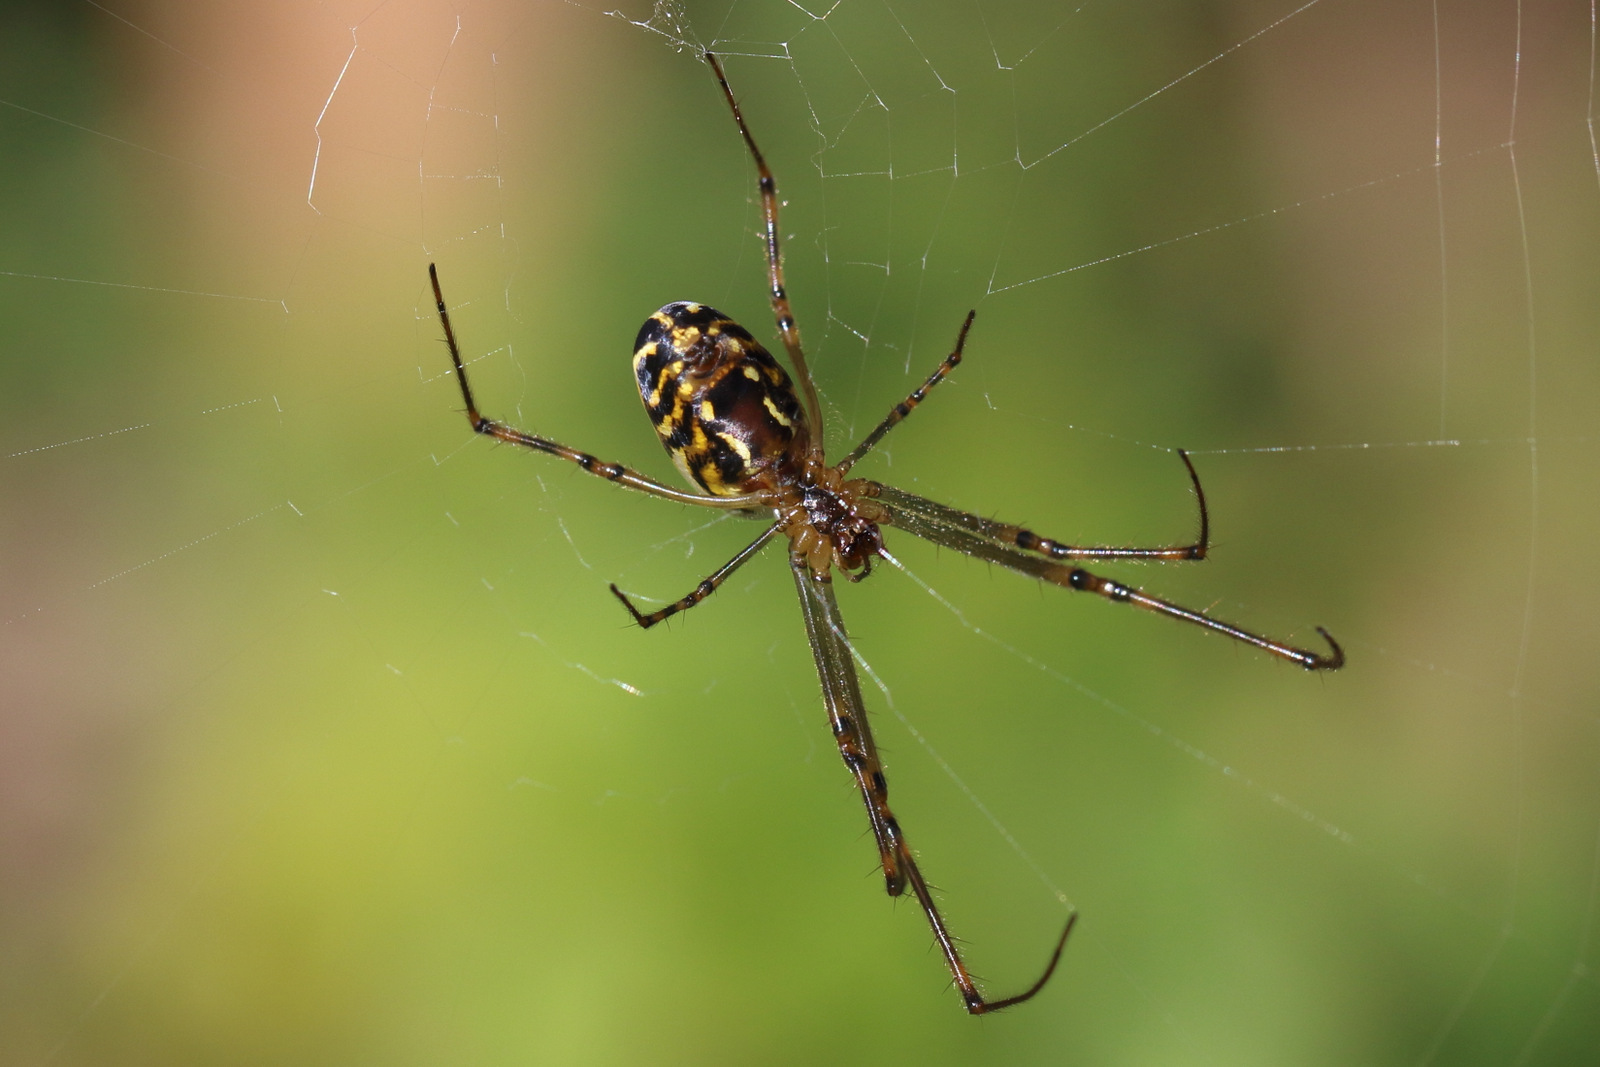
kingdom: Animalia
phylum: Arthropoda
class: Arachnida
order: Araneae
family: Tetragnathidae
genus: Leucauge
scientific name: Leucauge dromedaria
